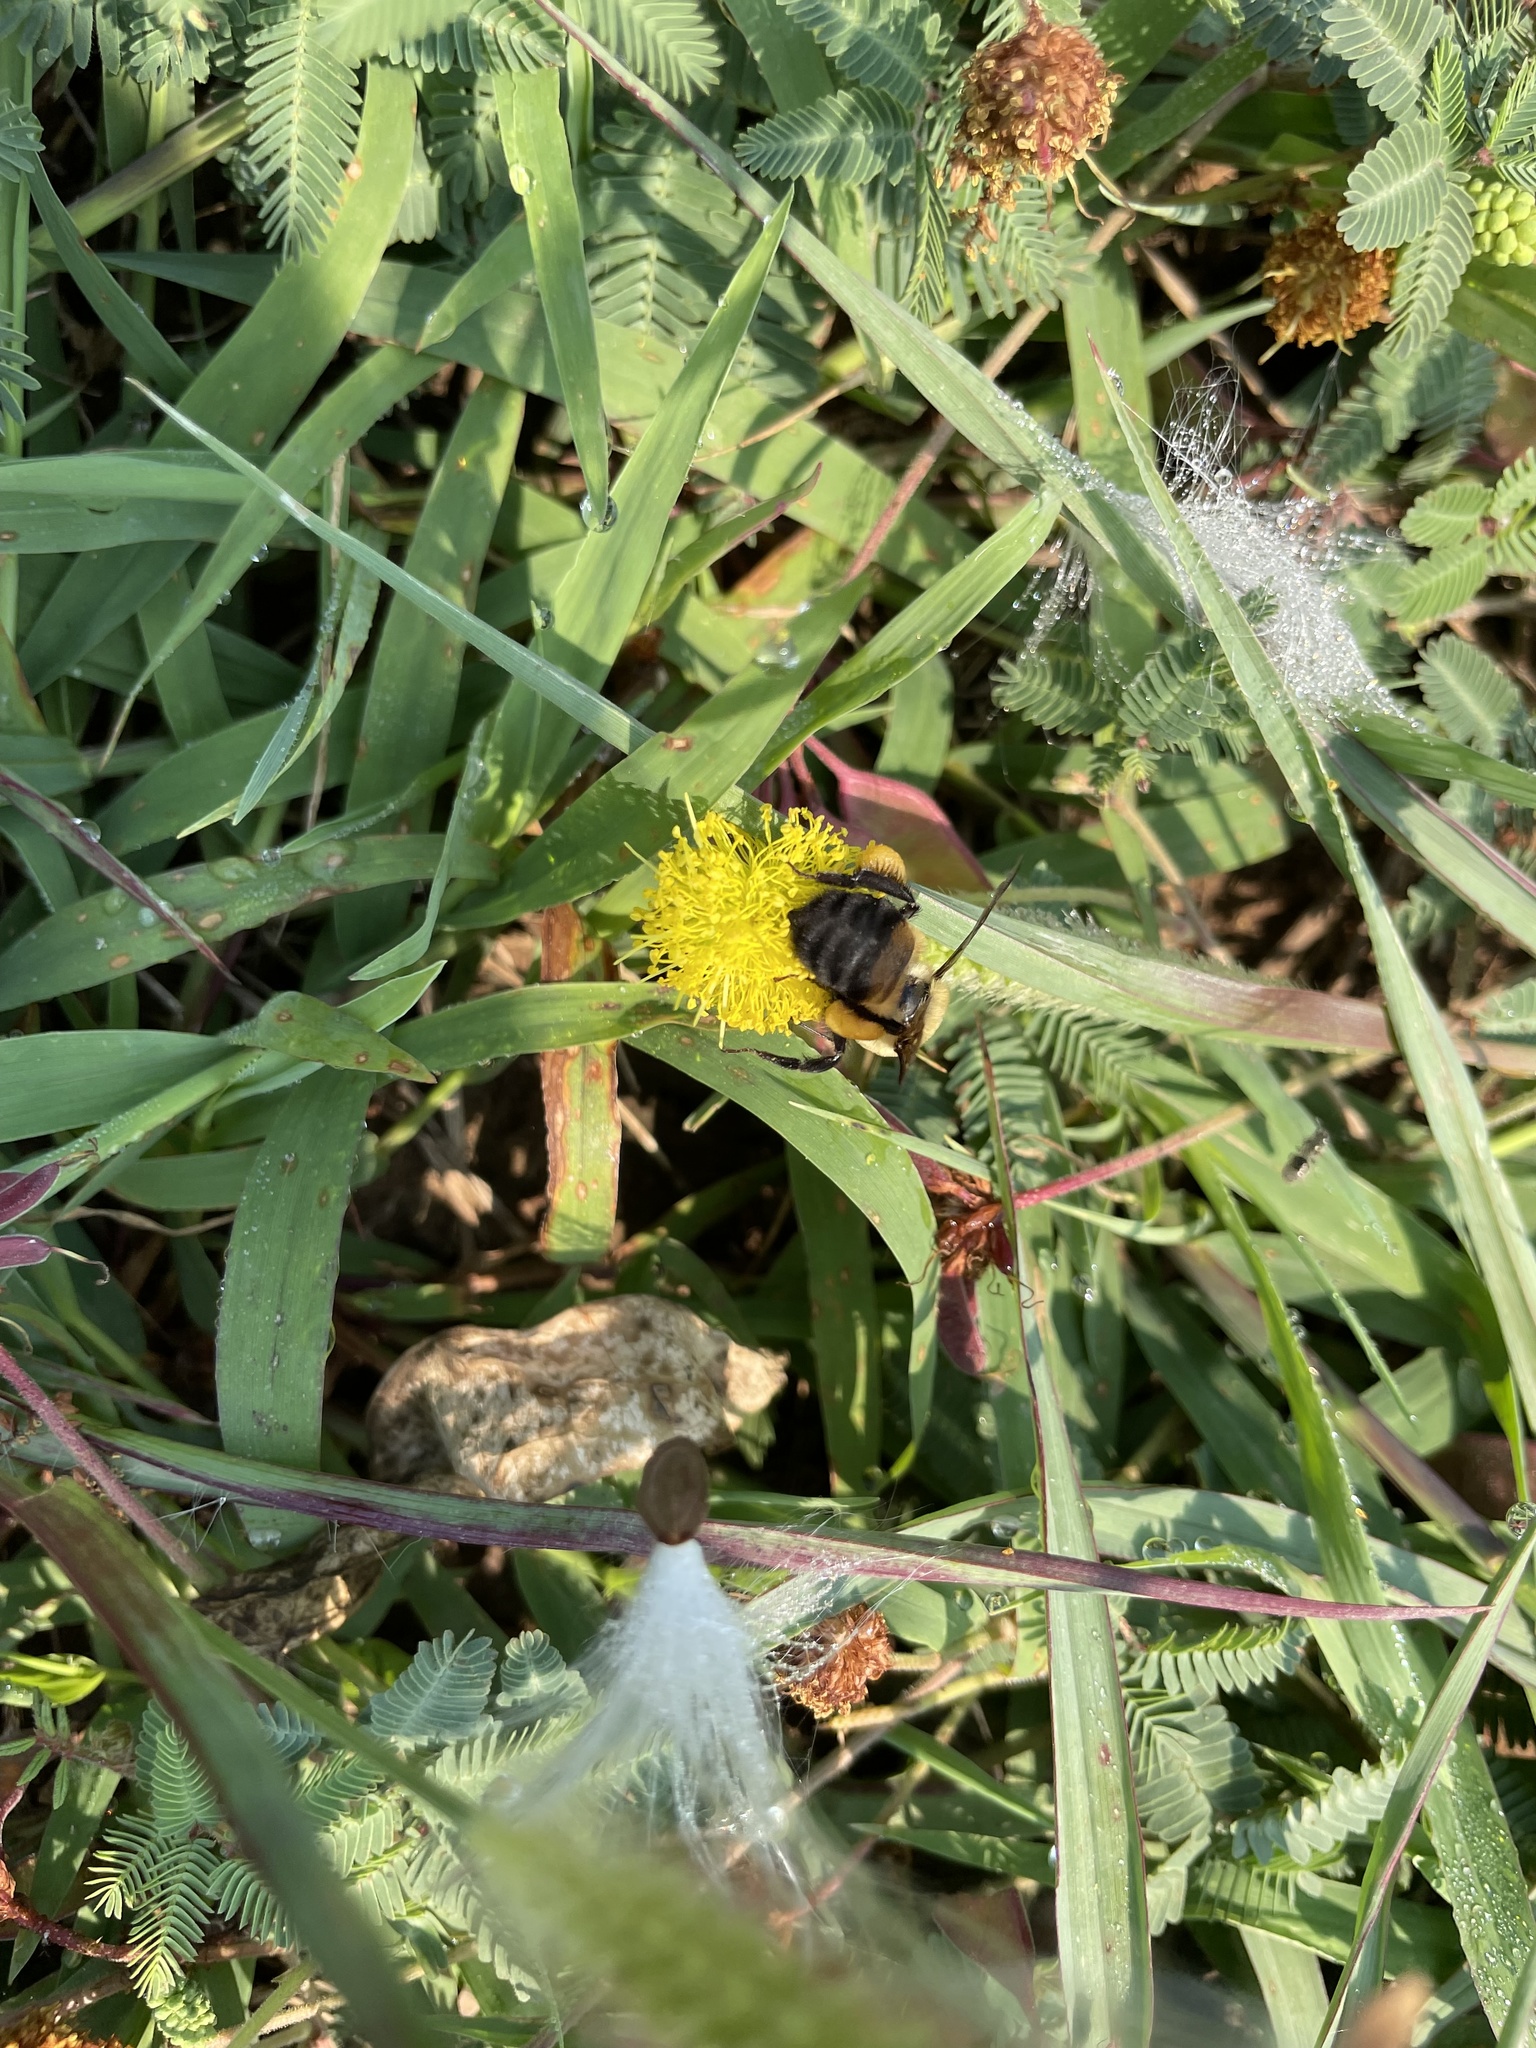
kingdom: Animalia
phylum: Arthropoda
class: Insecta
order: Hymenoptera
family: Apidae
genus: Bombus
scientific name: Bombus griseocollis
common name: Brown-belted bumble bee
